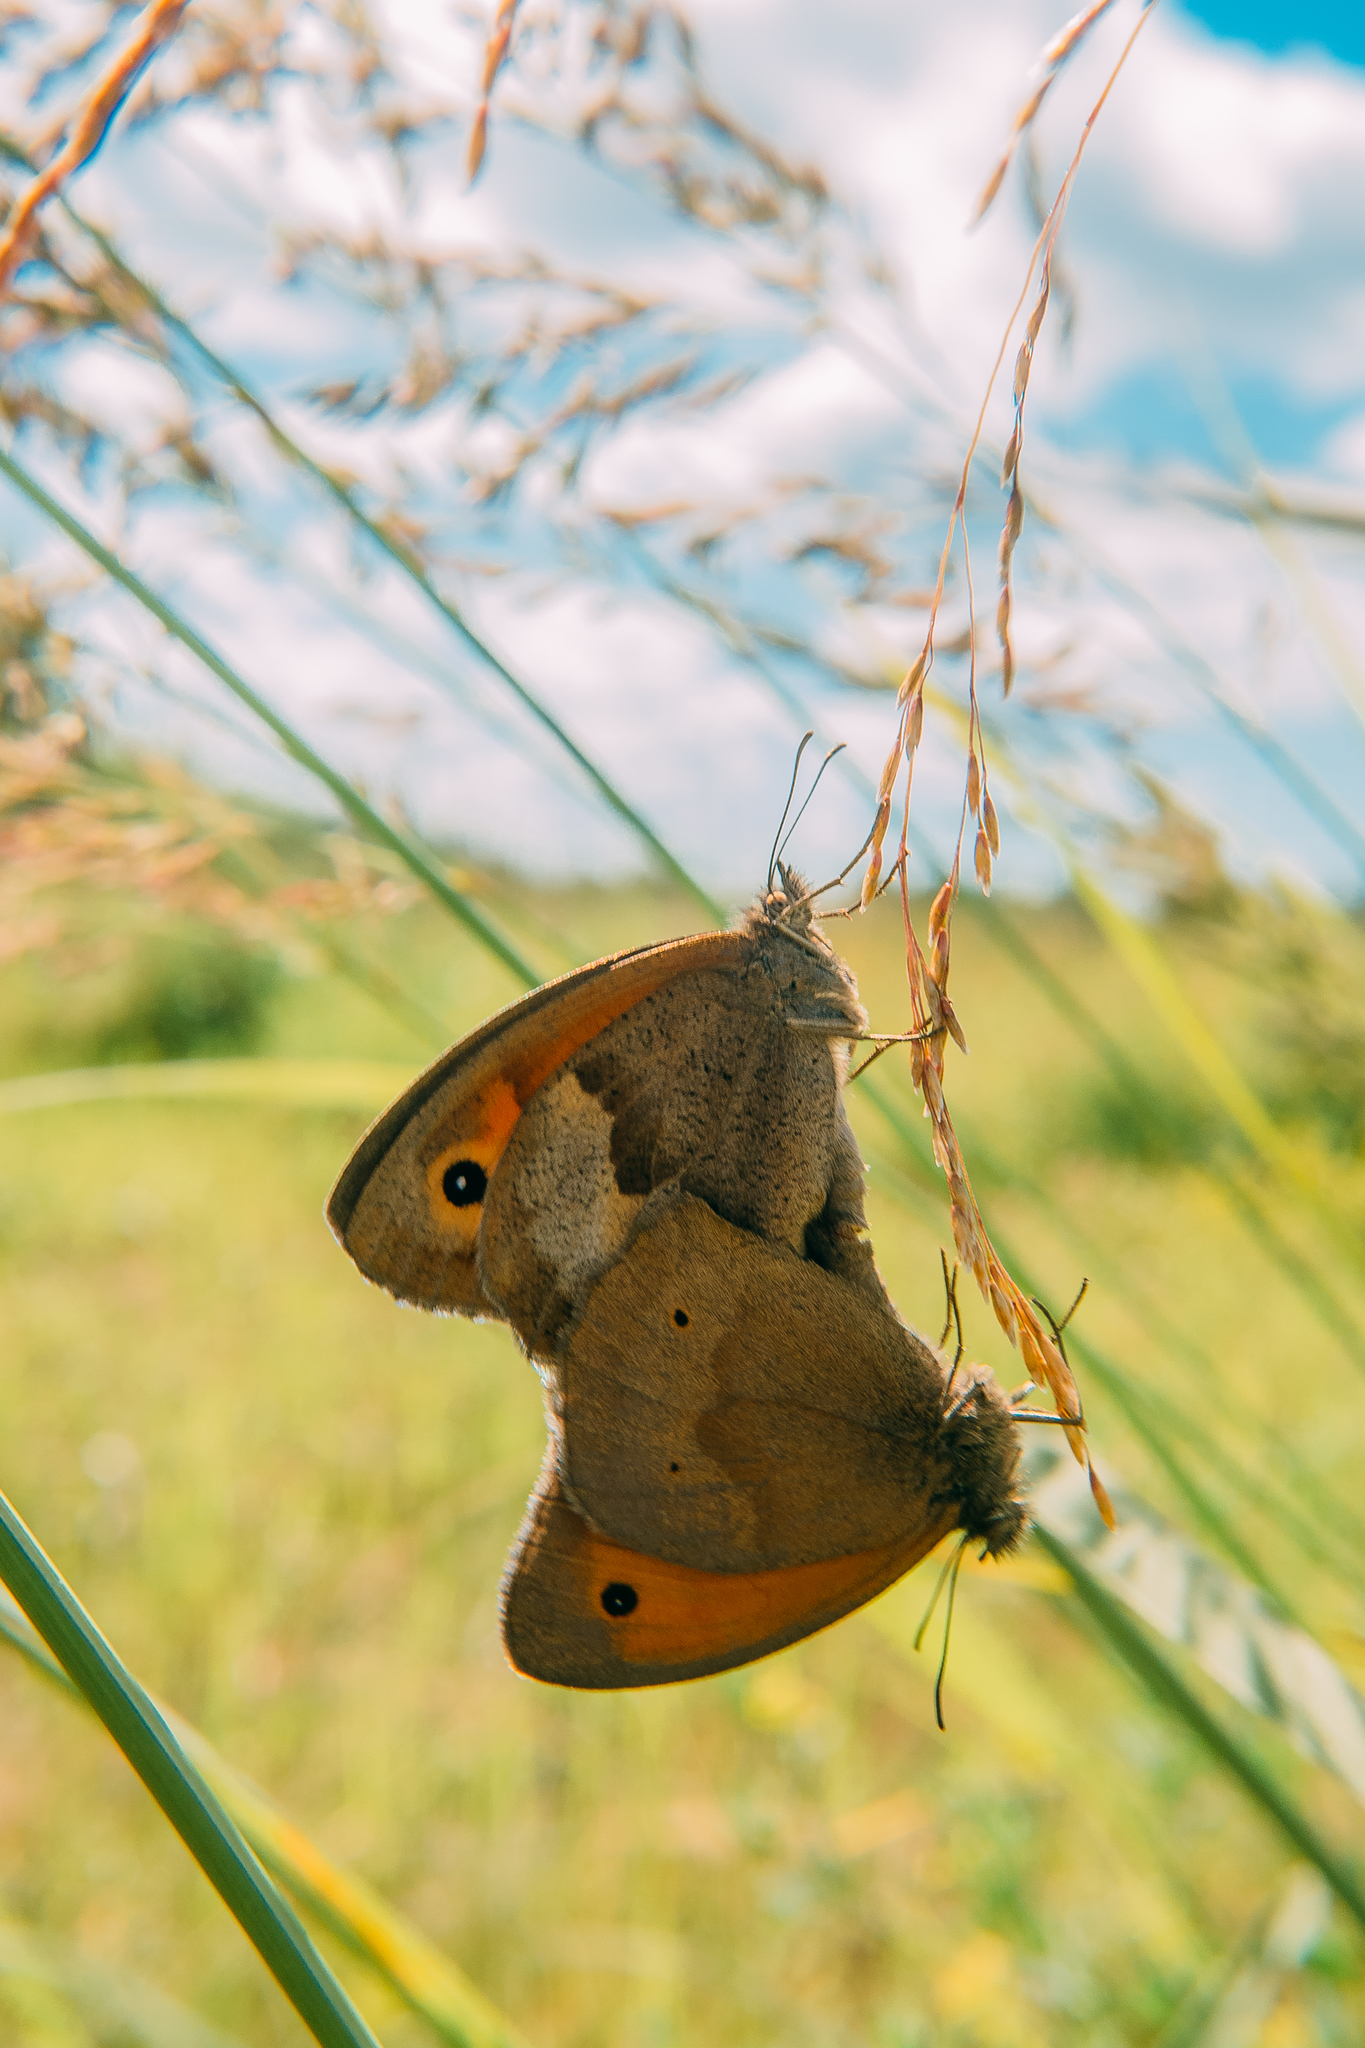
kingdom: Animalia
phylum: Arthropoda
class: Insecta
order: Lepidoptera
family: Nymphalidae
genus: Maniola
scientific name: Maniola jurtina
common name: Meadow brown
